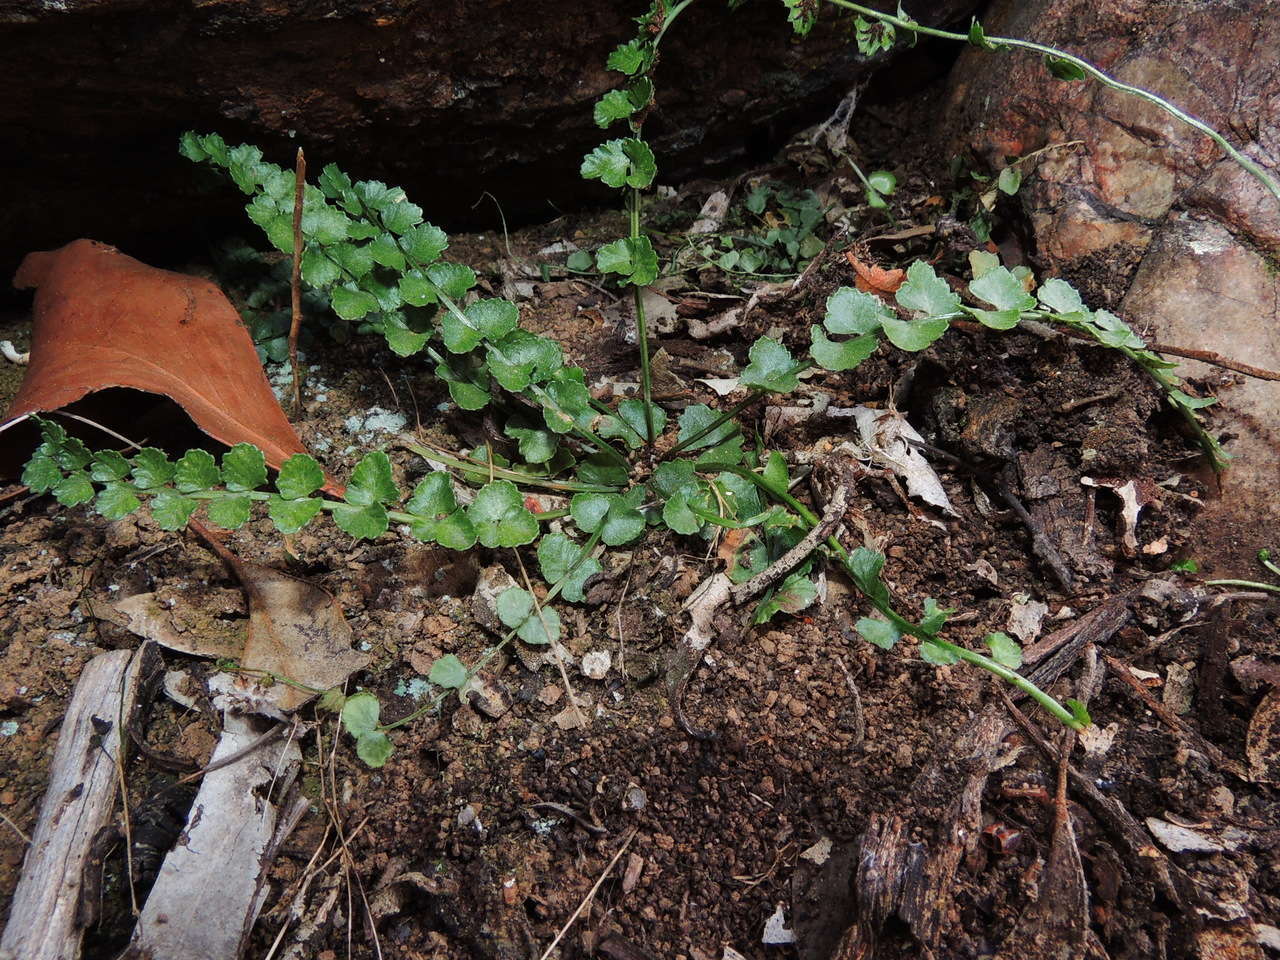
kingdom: Plantae
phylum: Tracheophyta
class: Polypodiopsida
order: Polypodiales
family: Aspleniaceae
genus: Asplenium
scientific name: Asplenium flabellifolium
